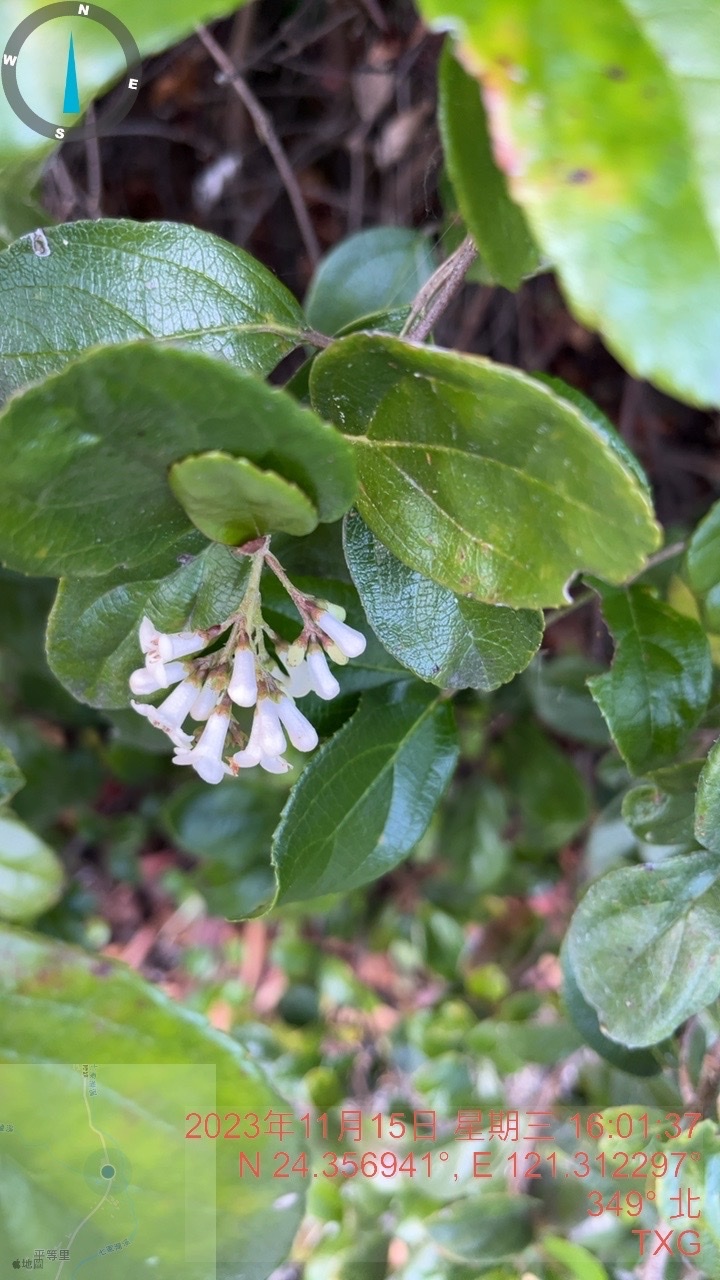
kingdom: Plantae
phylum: Tracheophyta
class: Magnoliopsida
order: Dipsacales
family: Viburnaceae
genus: Viburnum
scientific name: Viburnum taitoense
